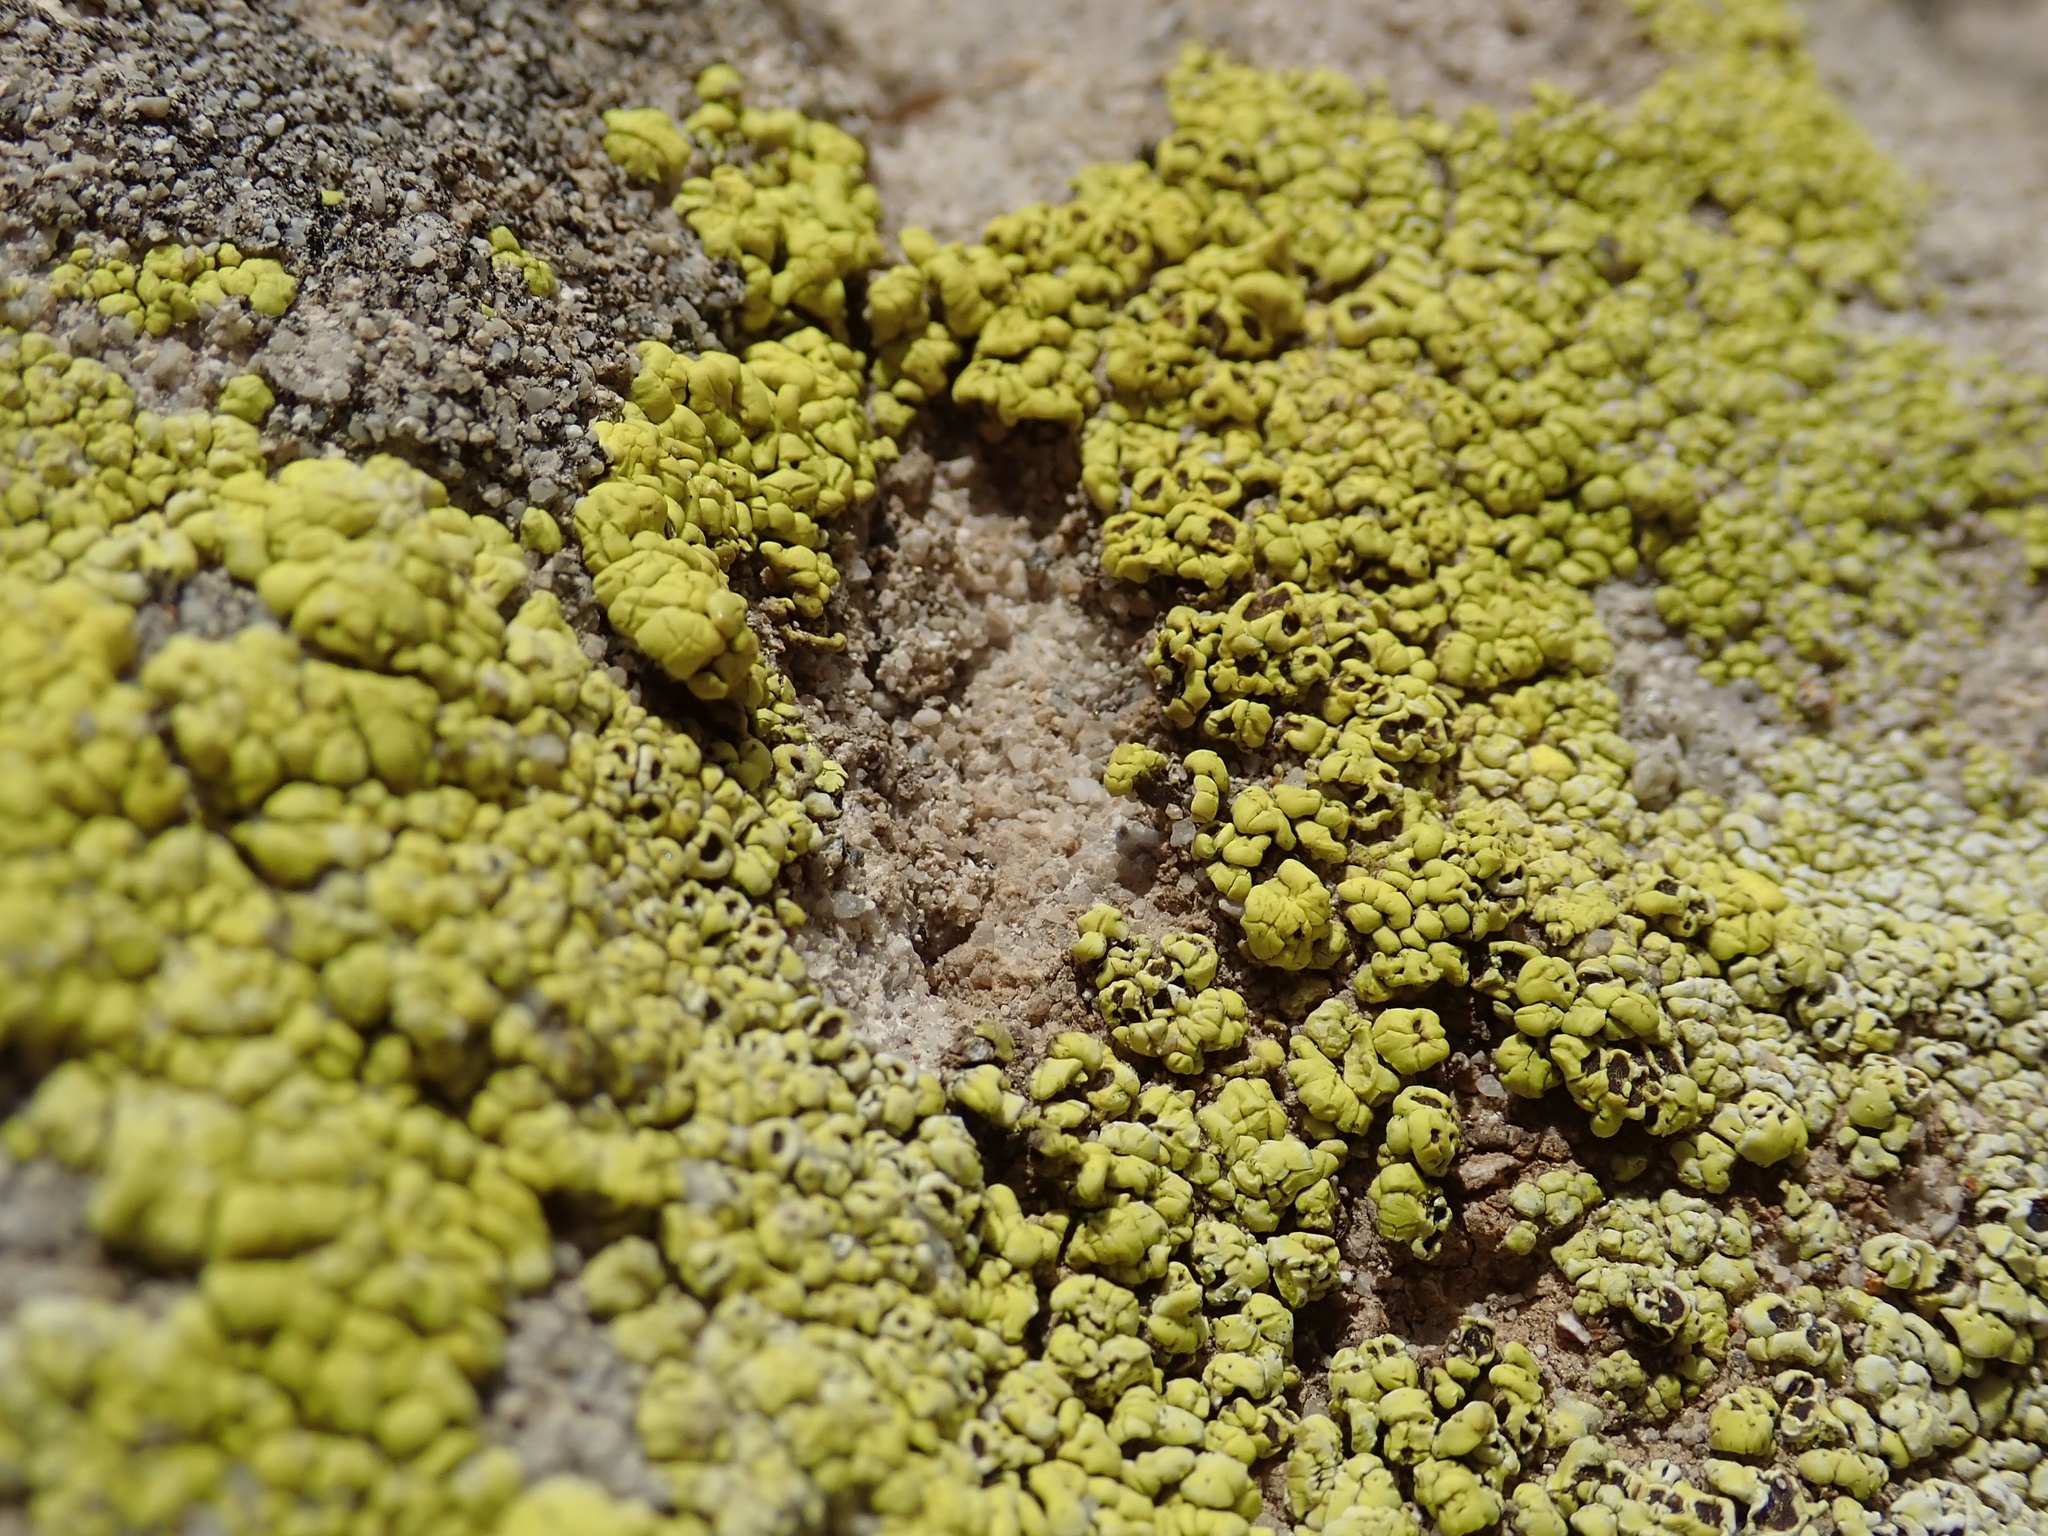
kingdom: Fungi
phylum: Ascomycota
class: Lecanoromycetes
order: Acarosporales
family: Acarosporaceae
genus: Acarospora
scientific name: Acarospora socialis
